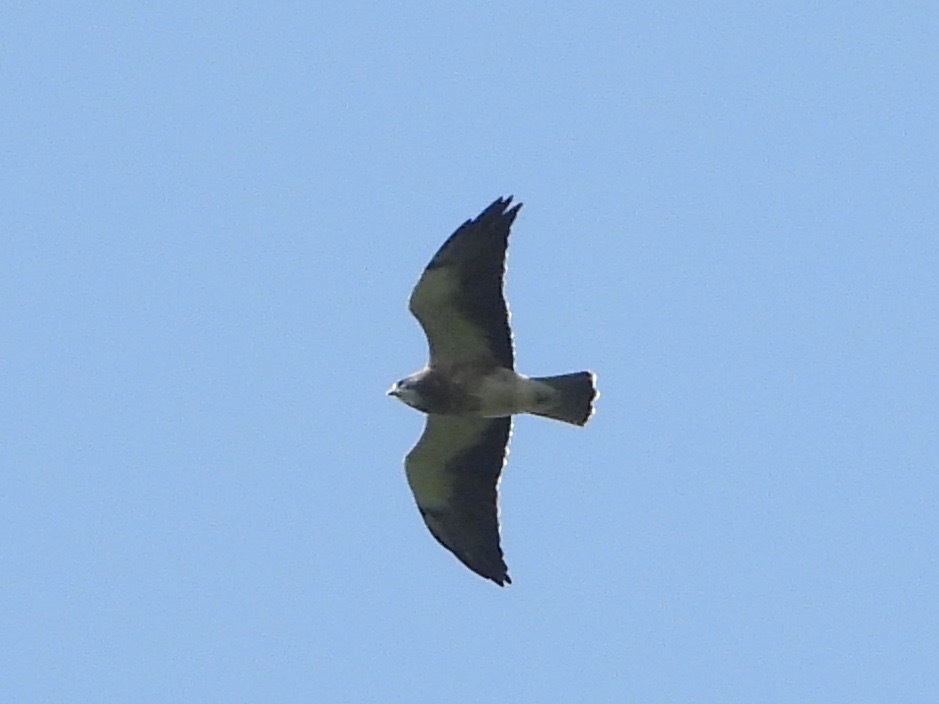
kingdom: Animalia
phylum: Chordata
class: Aves
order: Accipitriformes
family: Accipitridae
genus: Buteo
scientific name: Buteo swainsoni
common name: Swainson's hawk
